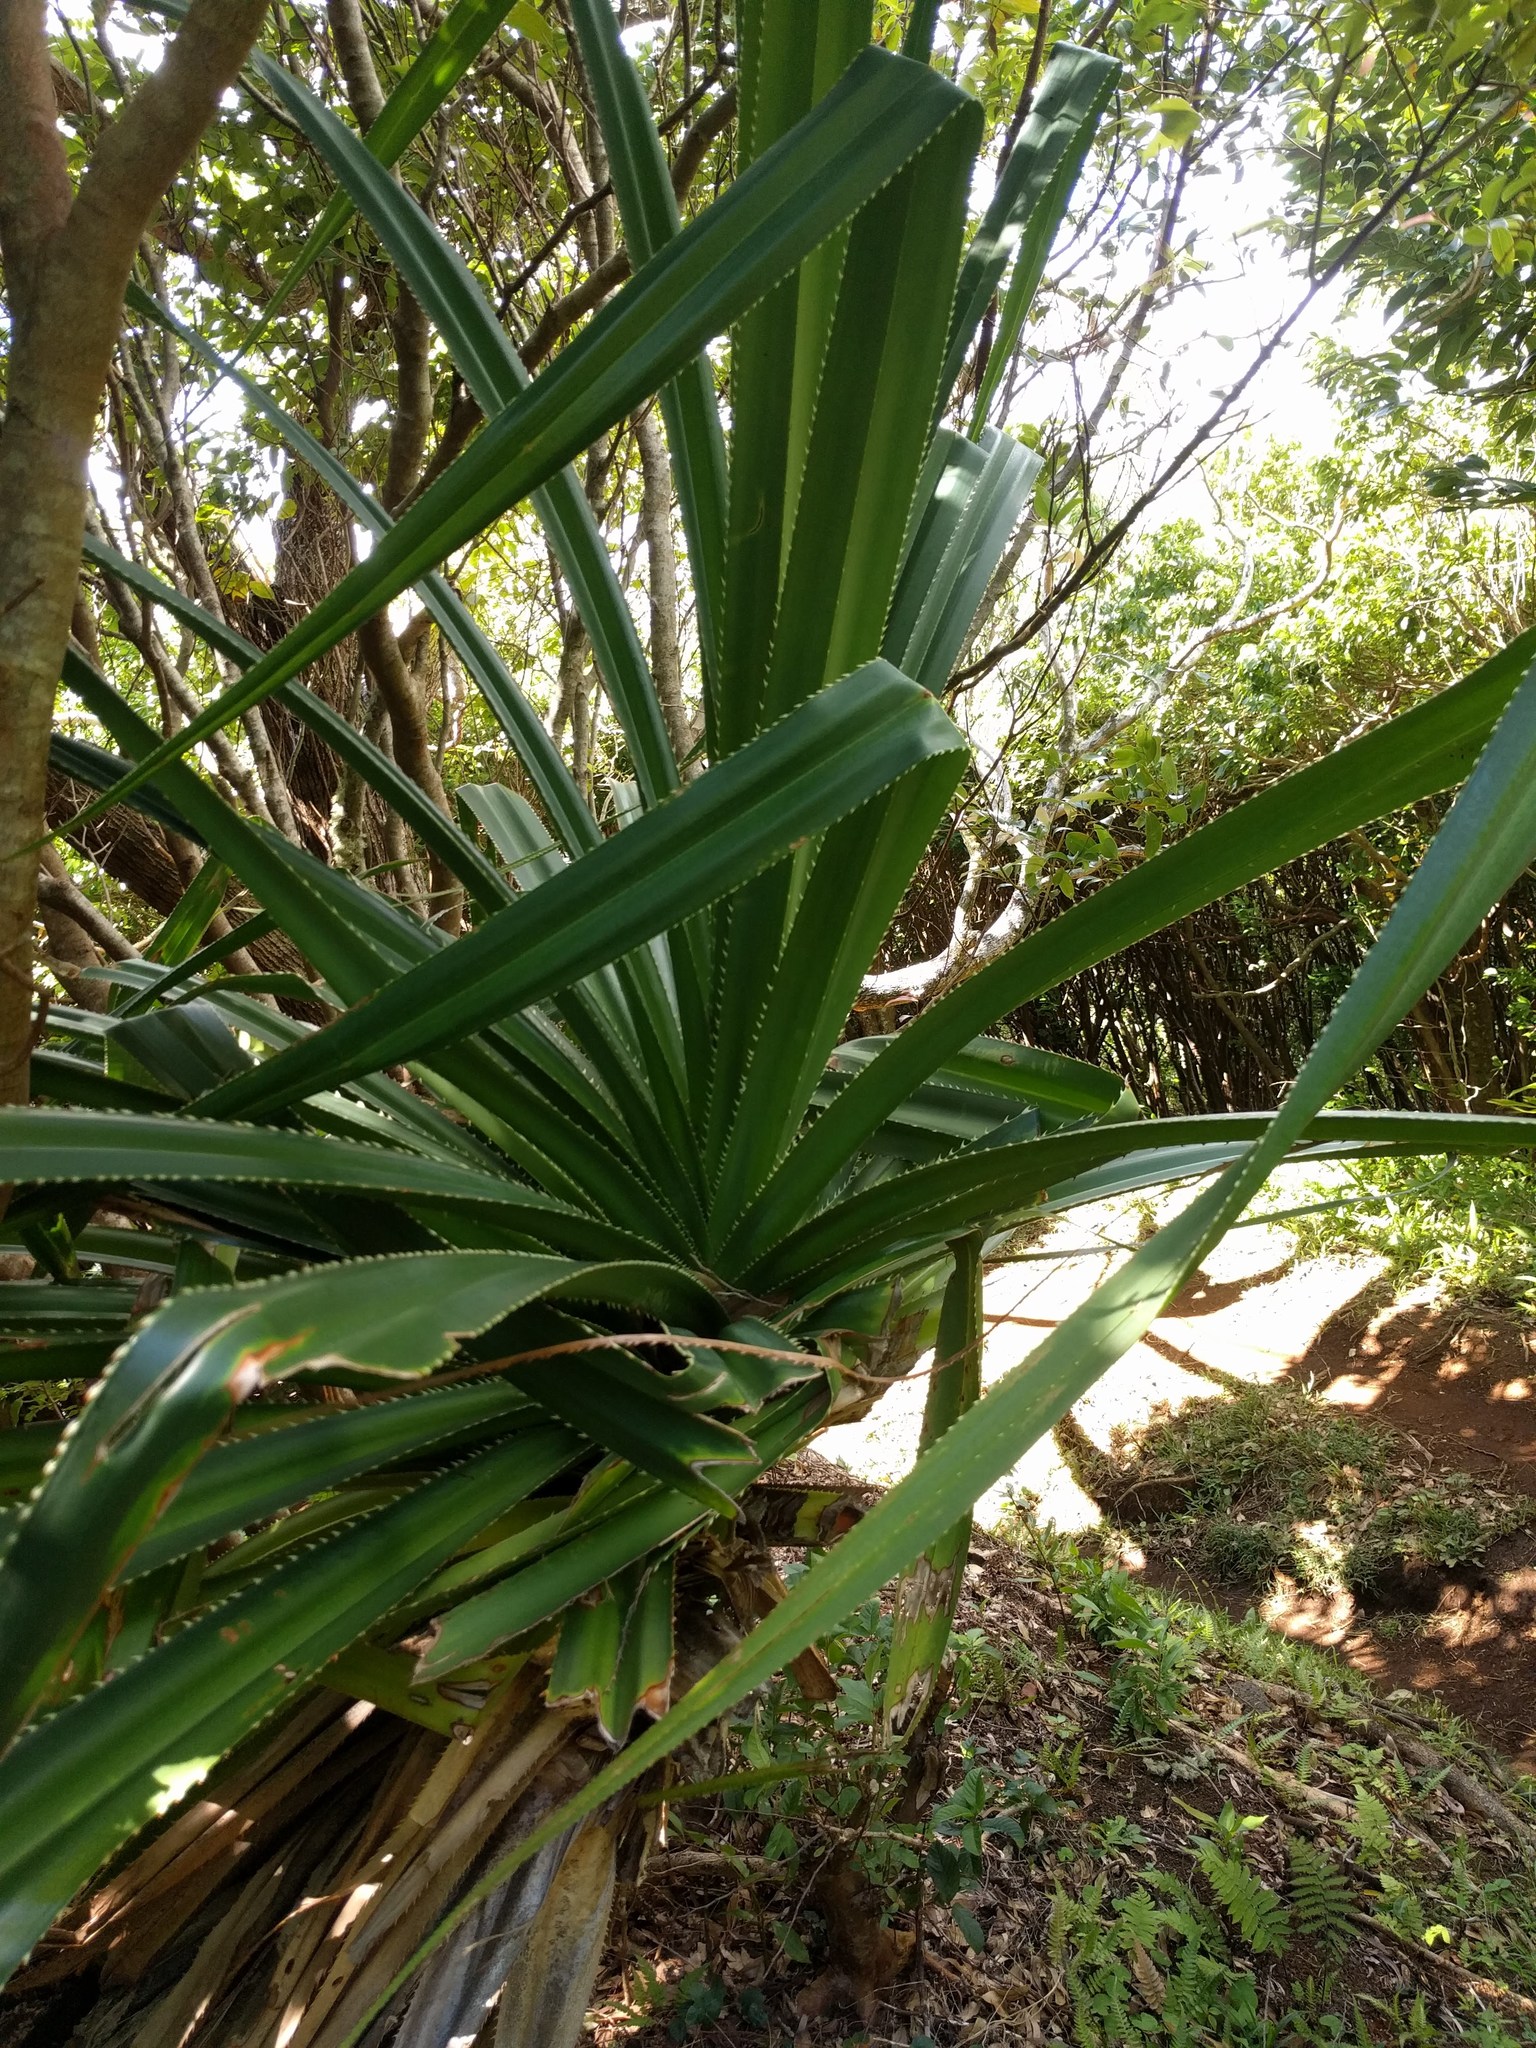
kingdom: Plantae
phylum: Tracheophyta
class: Liliopsida
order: Pandanales
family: Pandanaceae
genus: Pandanus
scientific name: Pandanus tectorius
